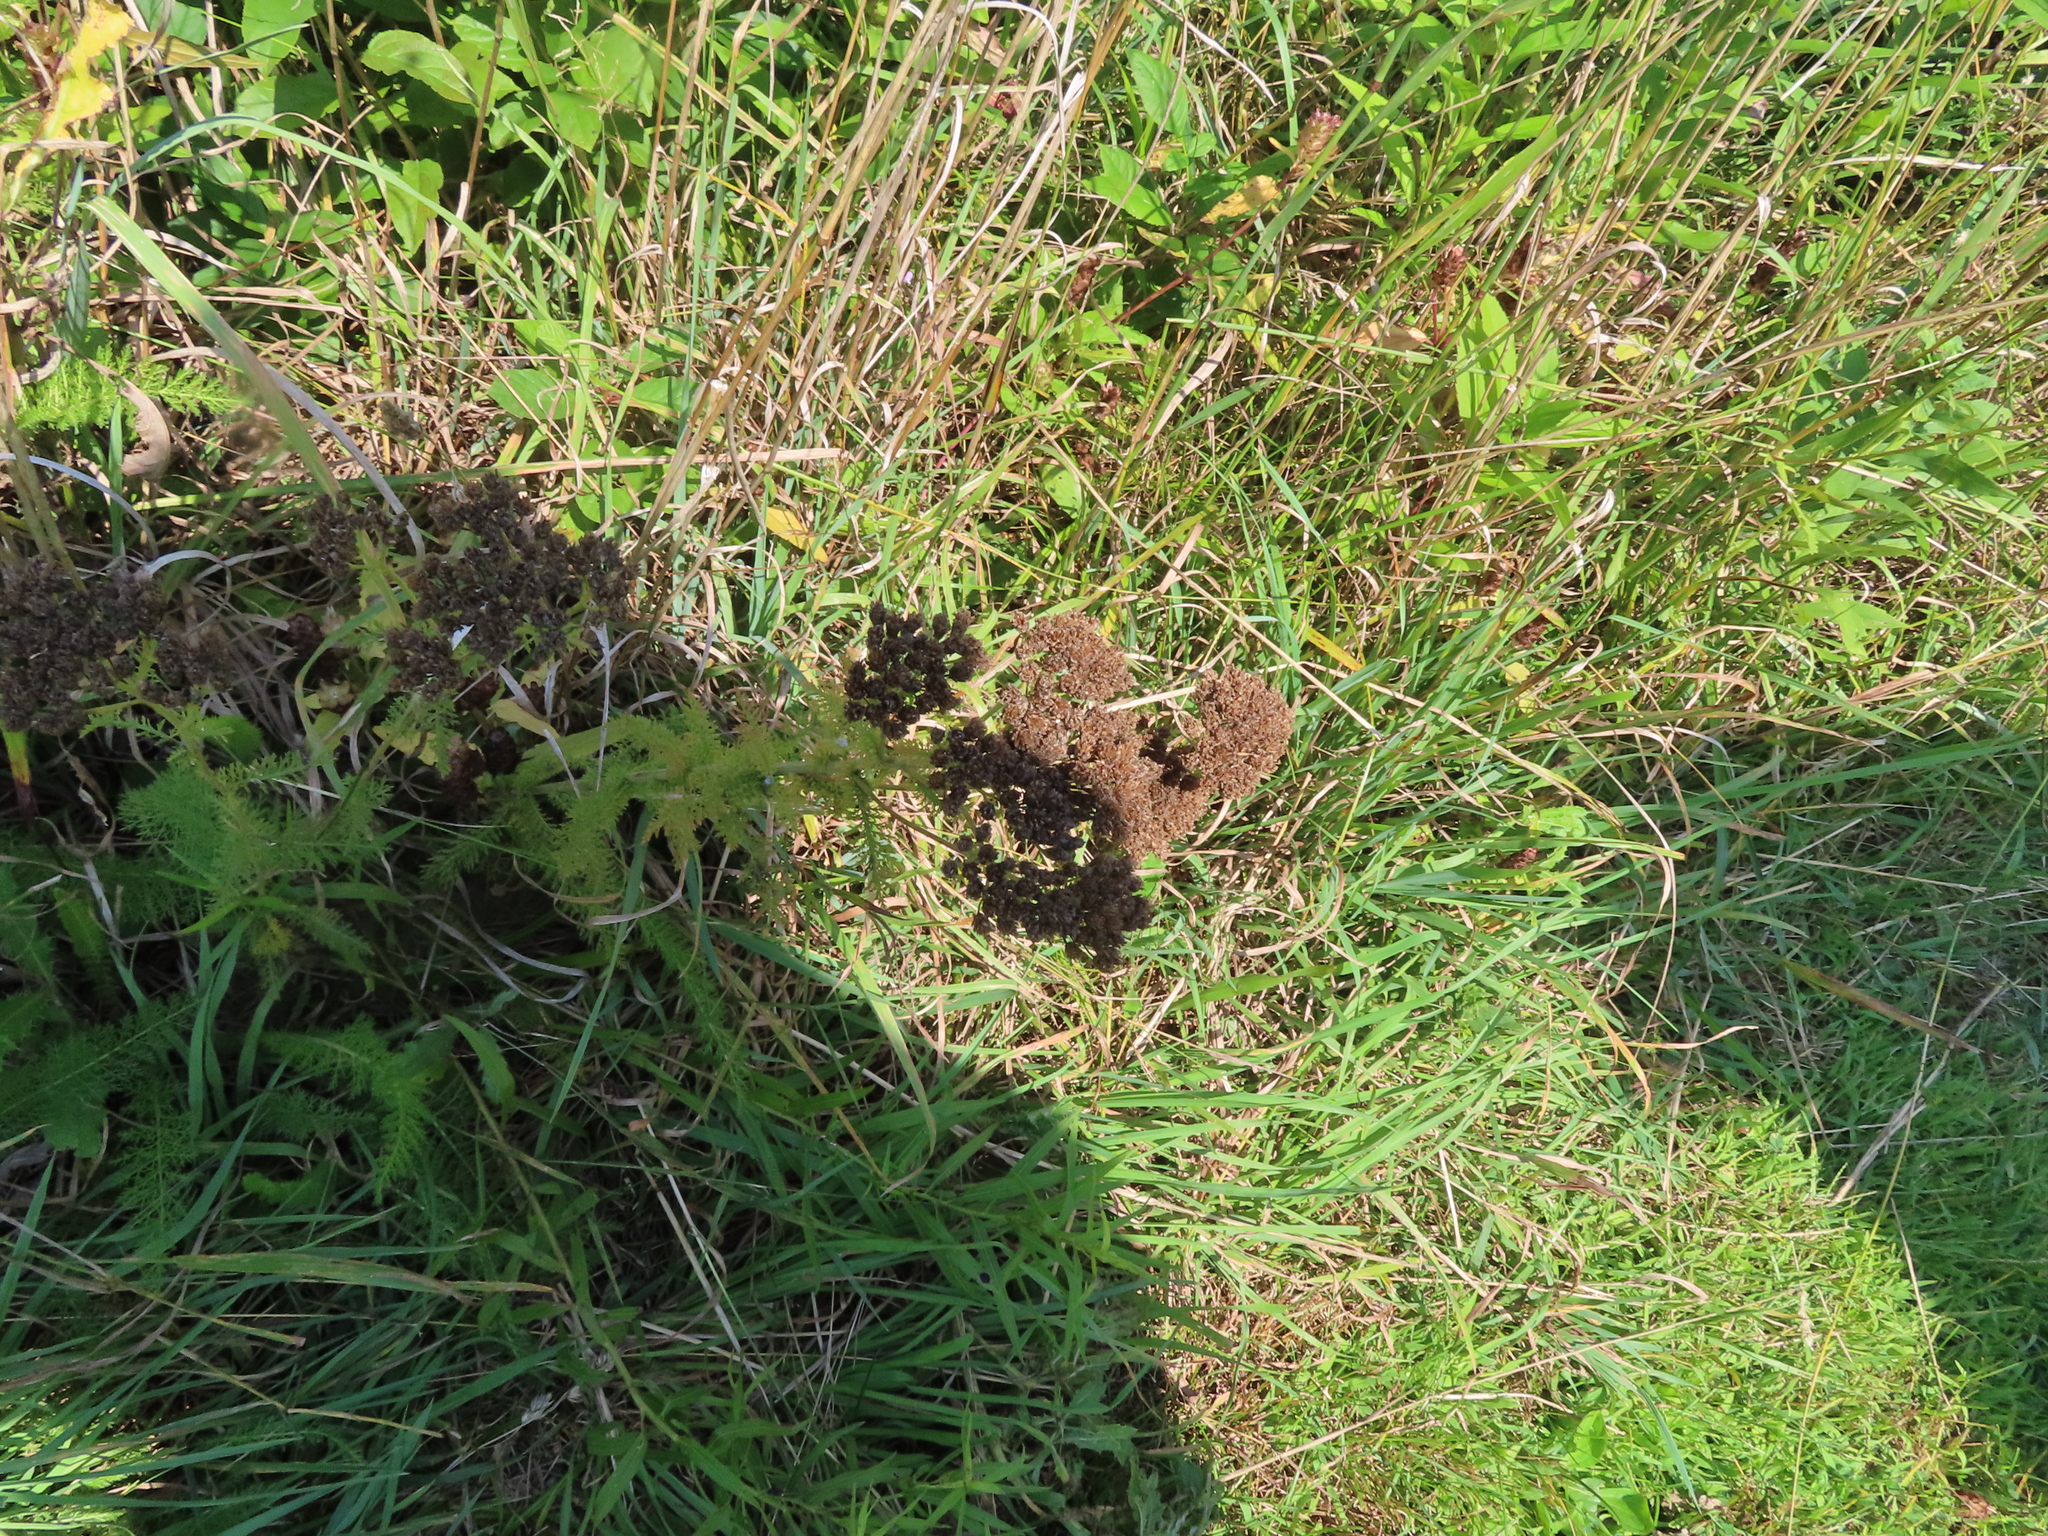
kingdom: Plantae
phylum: Tracheophyta
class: Magnoliopsida
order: Asterales
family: Asteraceae
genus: Achillea
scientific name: Achillea millefolium
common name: Yarrow
